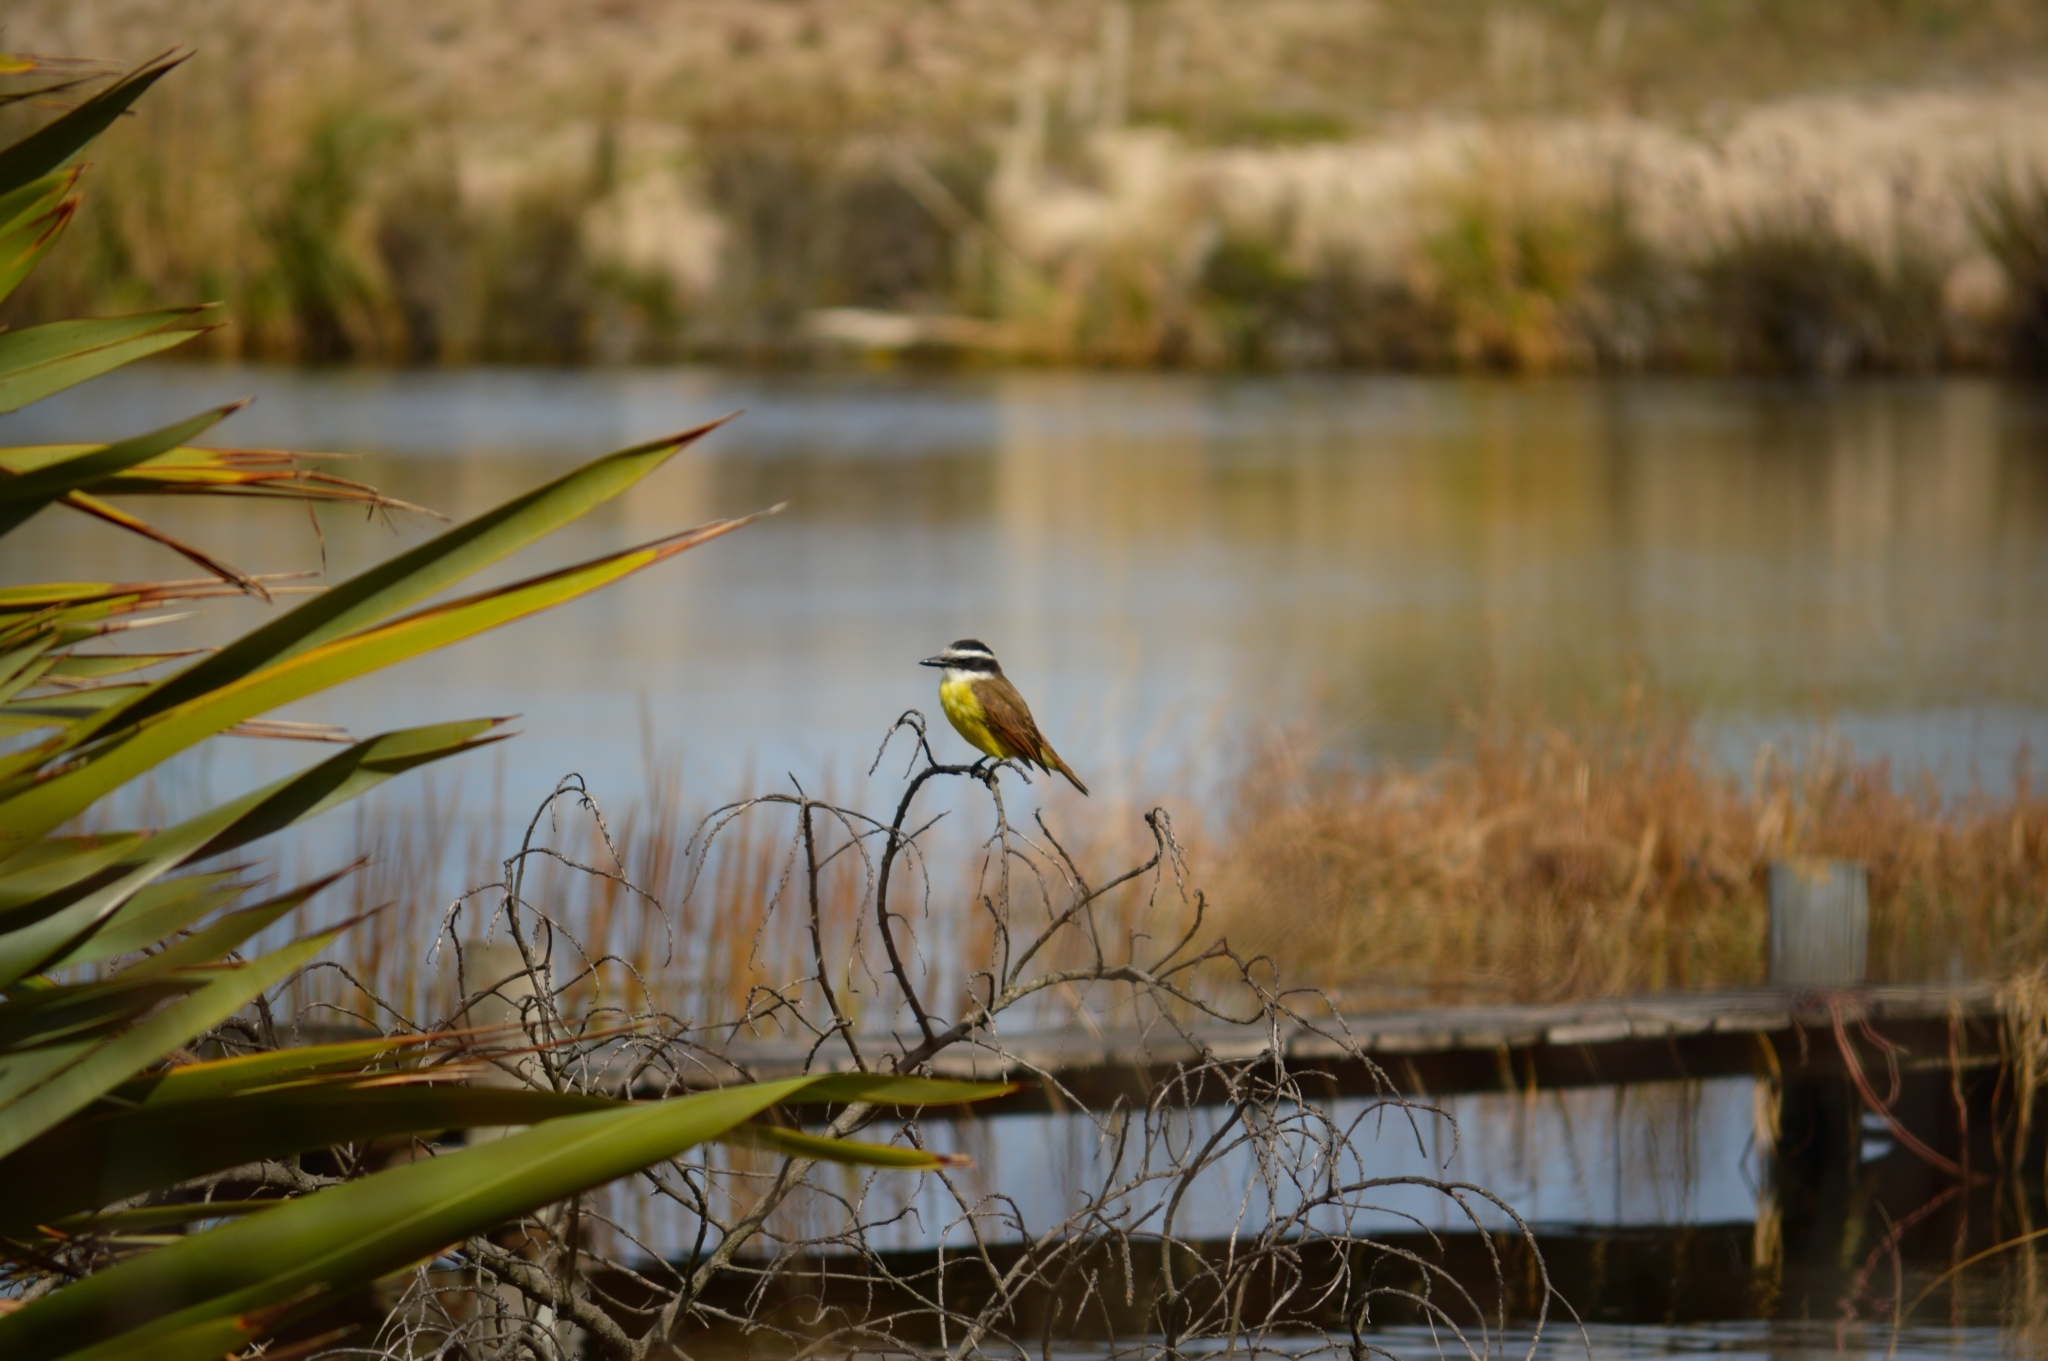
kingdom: Animalia
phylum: Chordata
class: Aves
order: Passeriformes
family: Tyrannidae
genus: Pitangus
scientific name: Pitangus sulphuratus
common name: Great kiskadee
